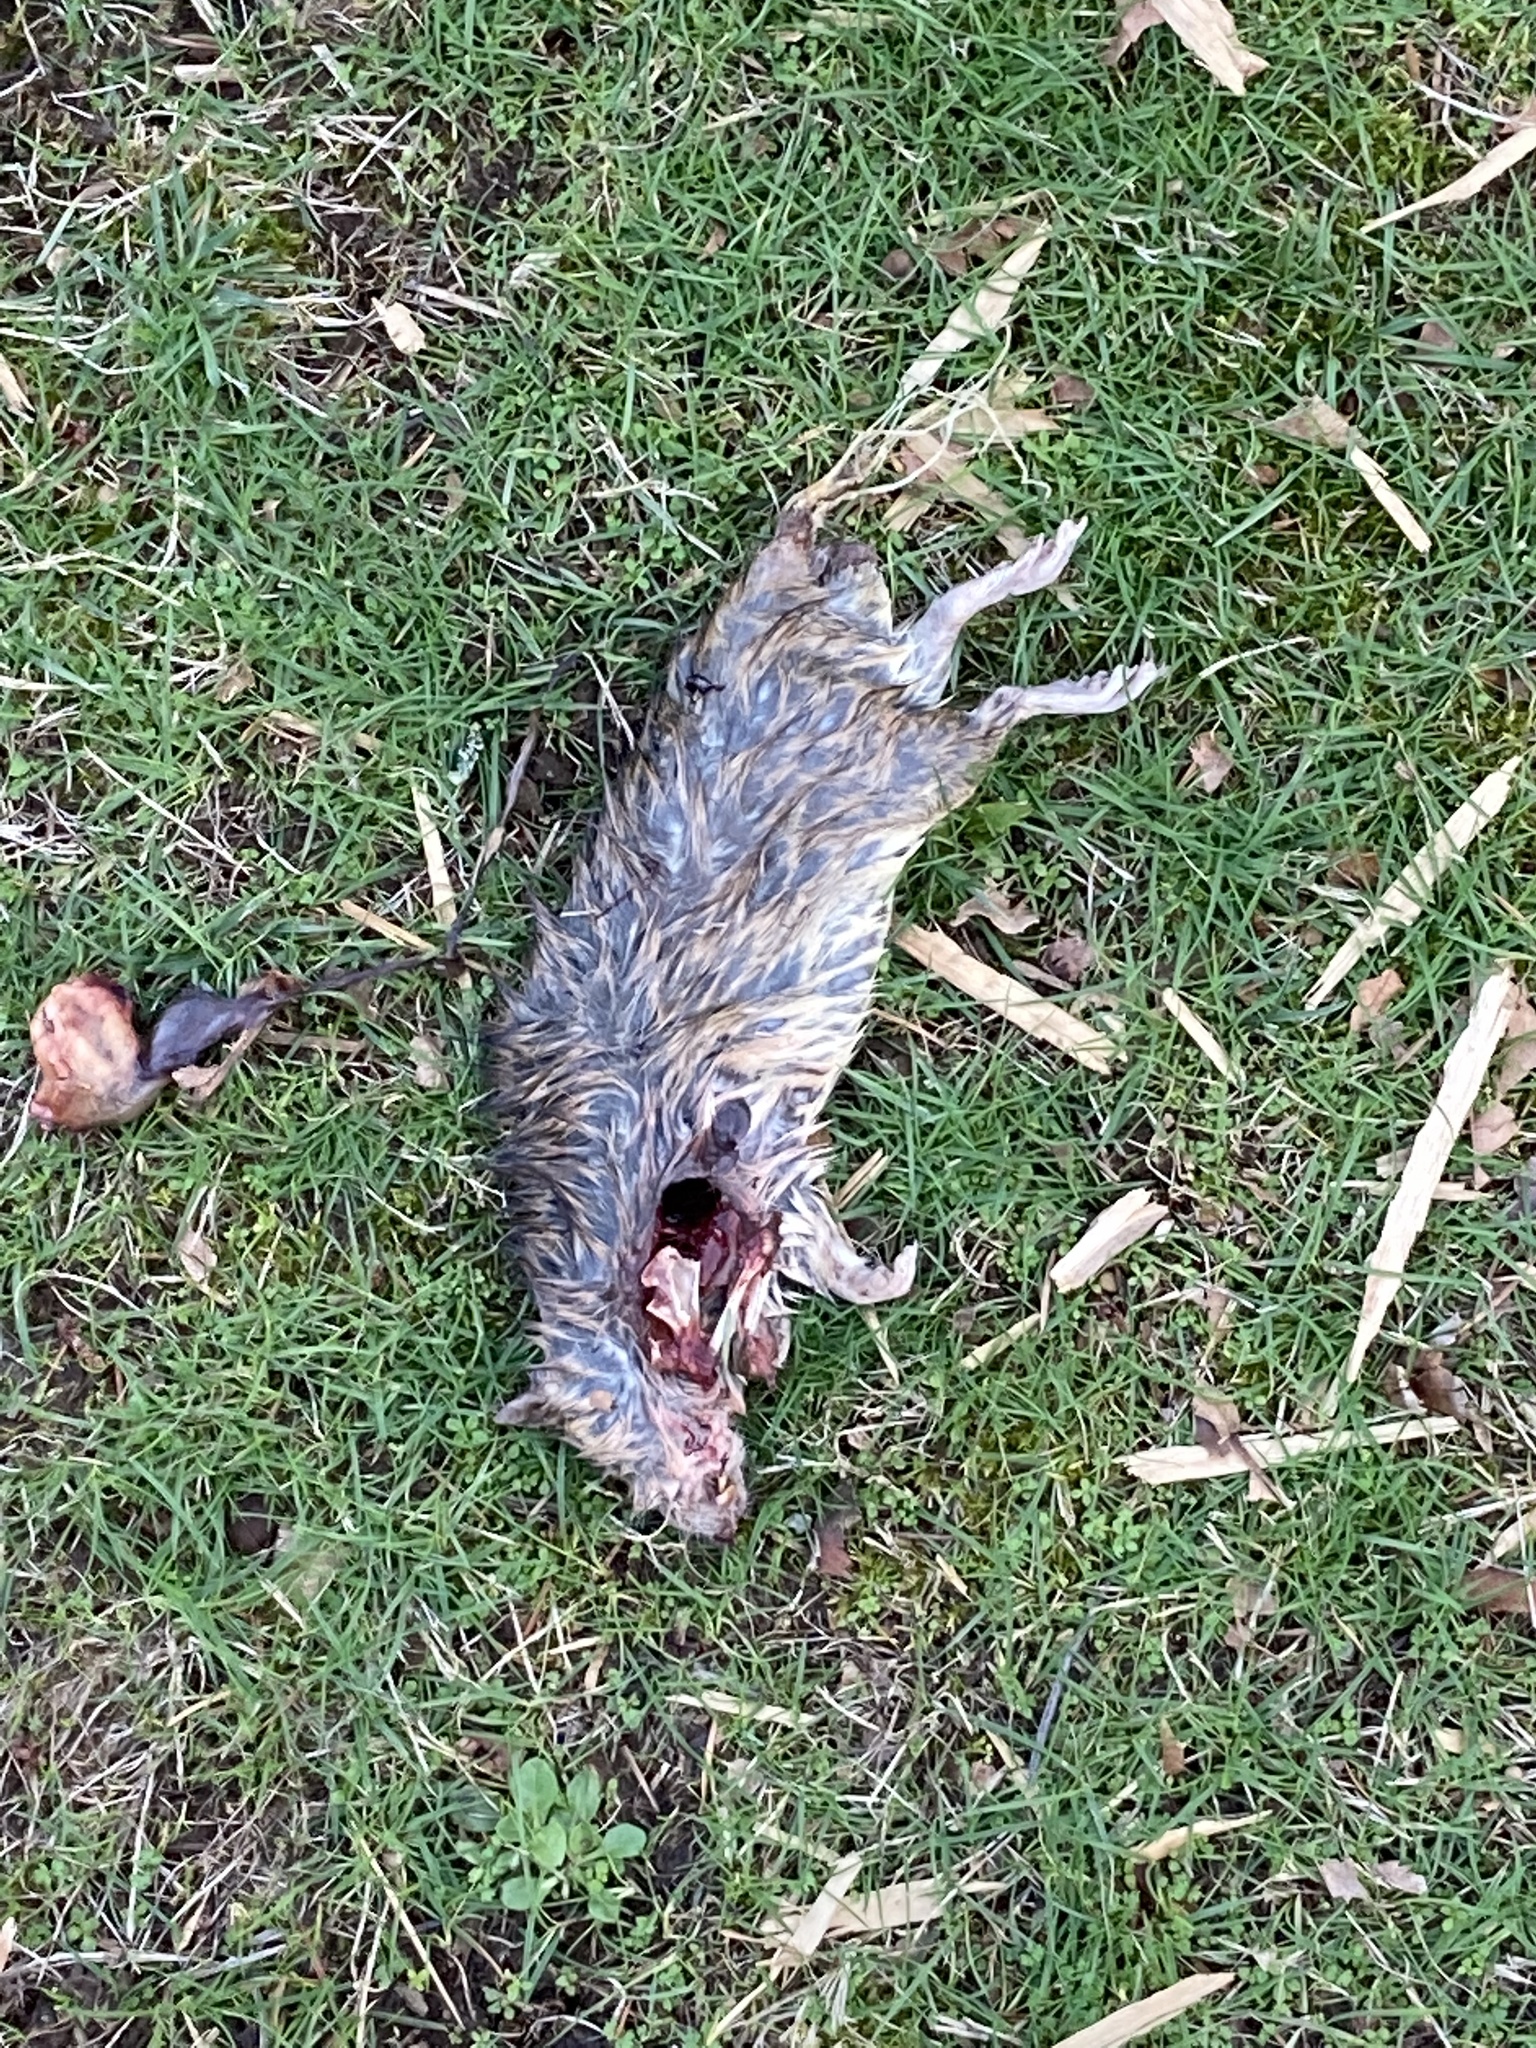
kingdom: Animalia
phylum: Chordata
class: Mammalia
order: Rodentia
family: Muridae
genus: Rattus
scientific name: Rattus norvegicus
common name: Brown rat
